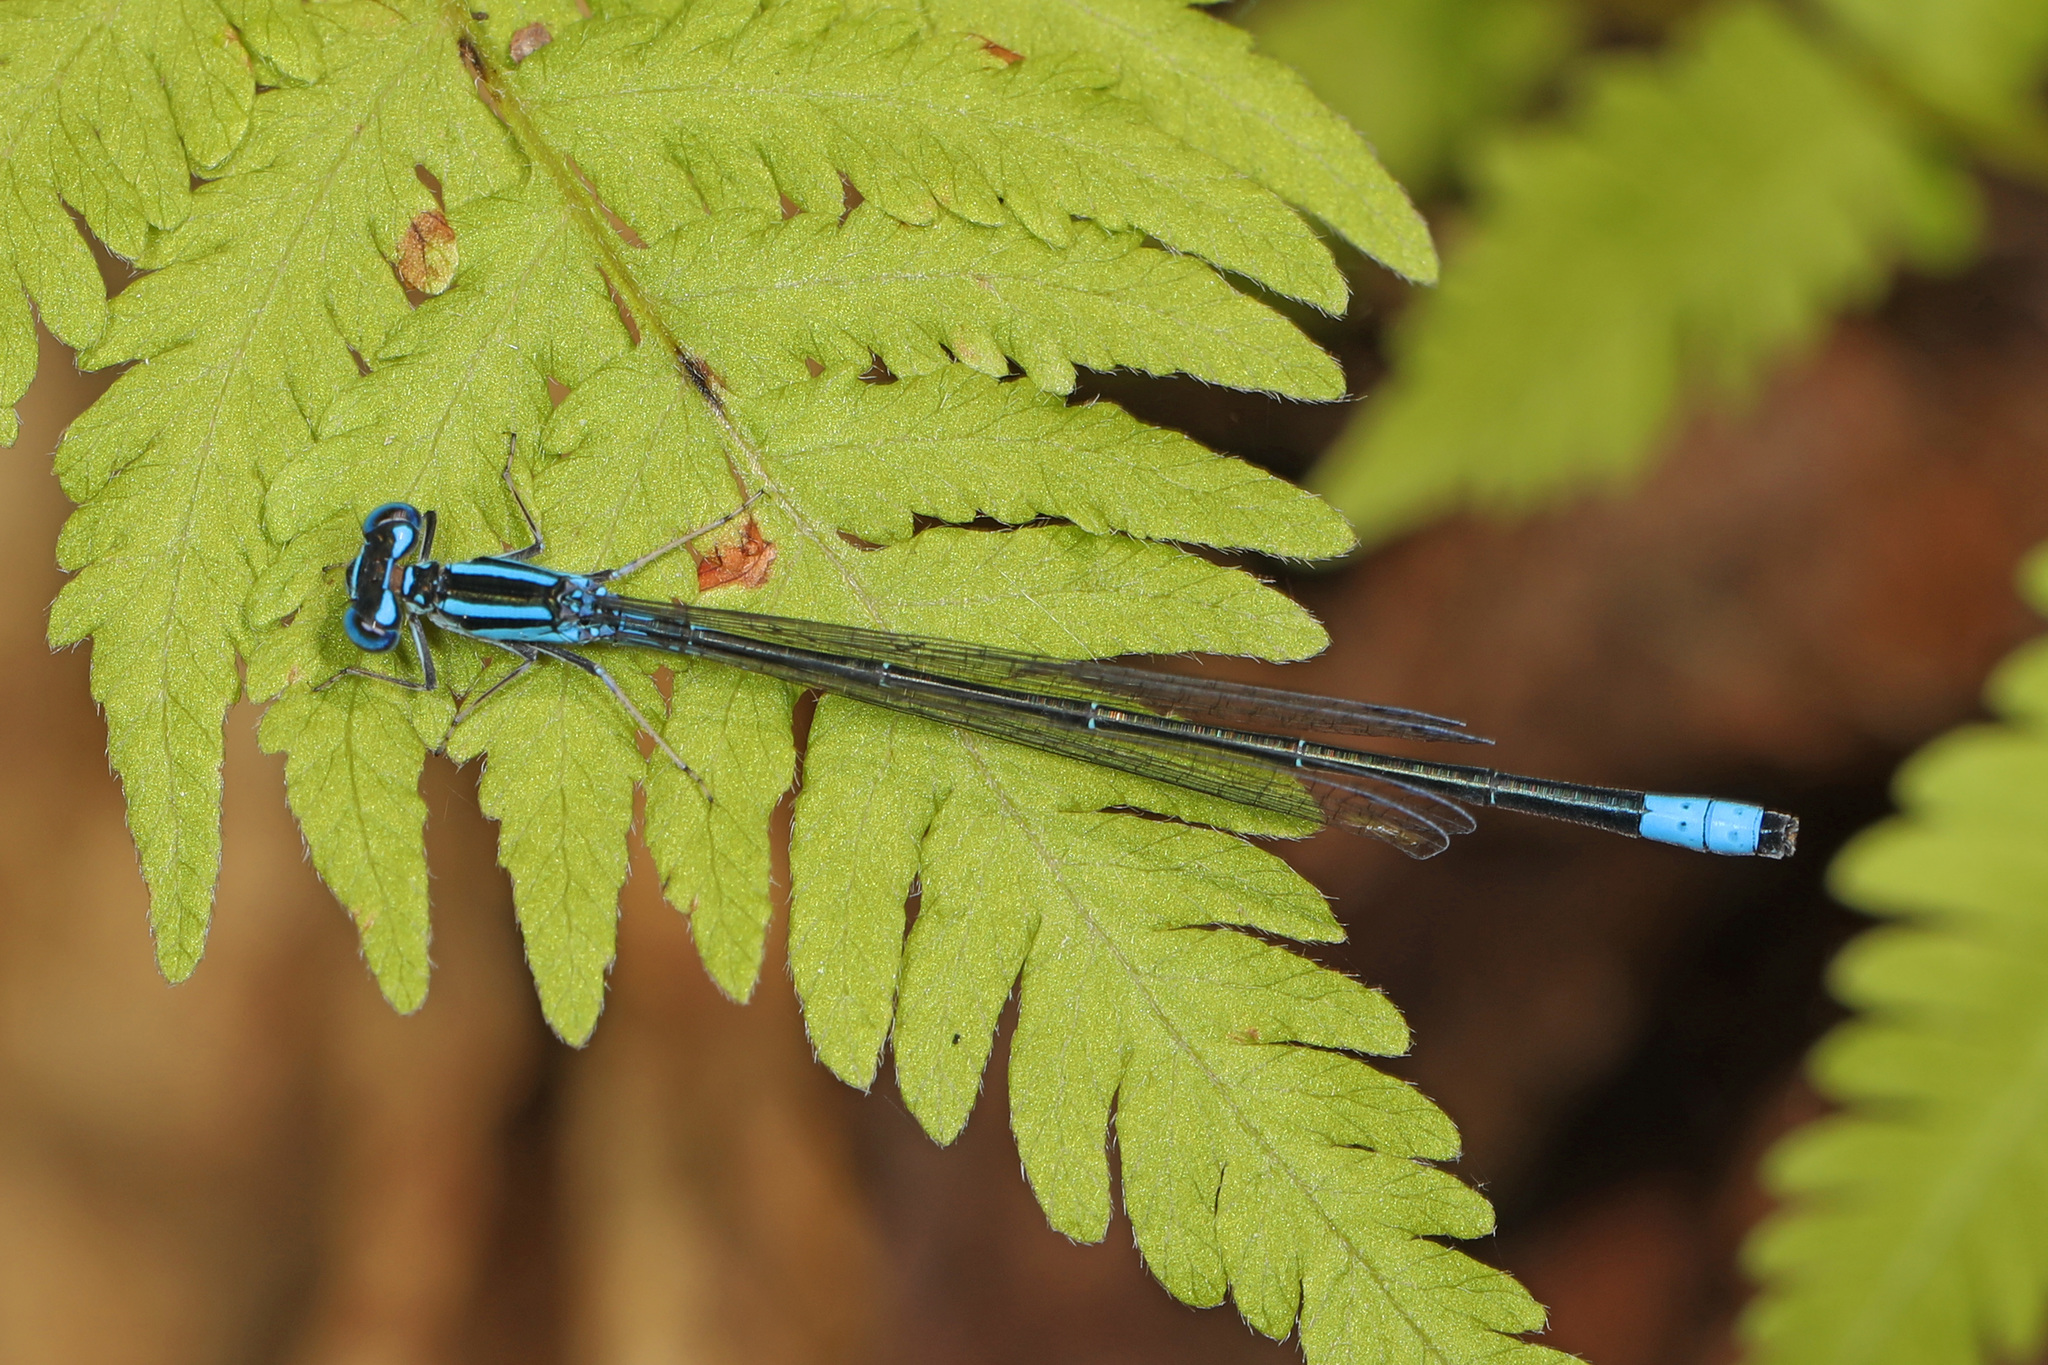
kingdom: Animalia
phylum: Arthropoda
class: Insecta
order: Odonata
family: Coenagrionidae
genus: Enallagma
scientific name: Enallagma divagans
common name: Turquoise bluet
